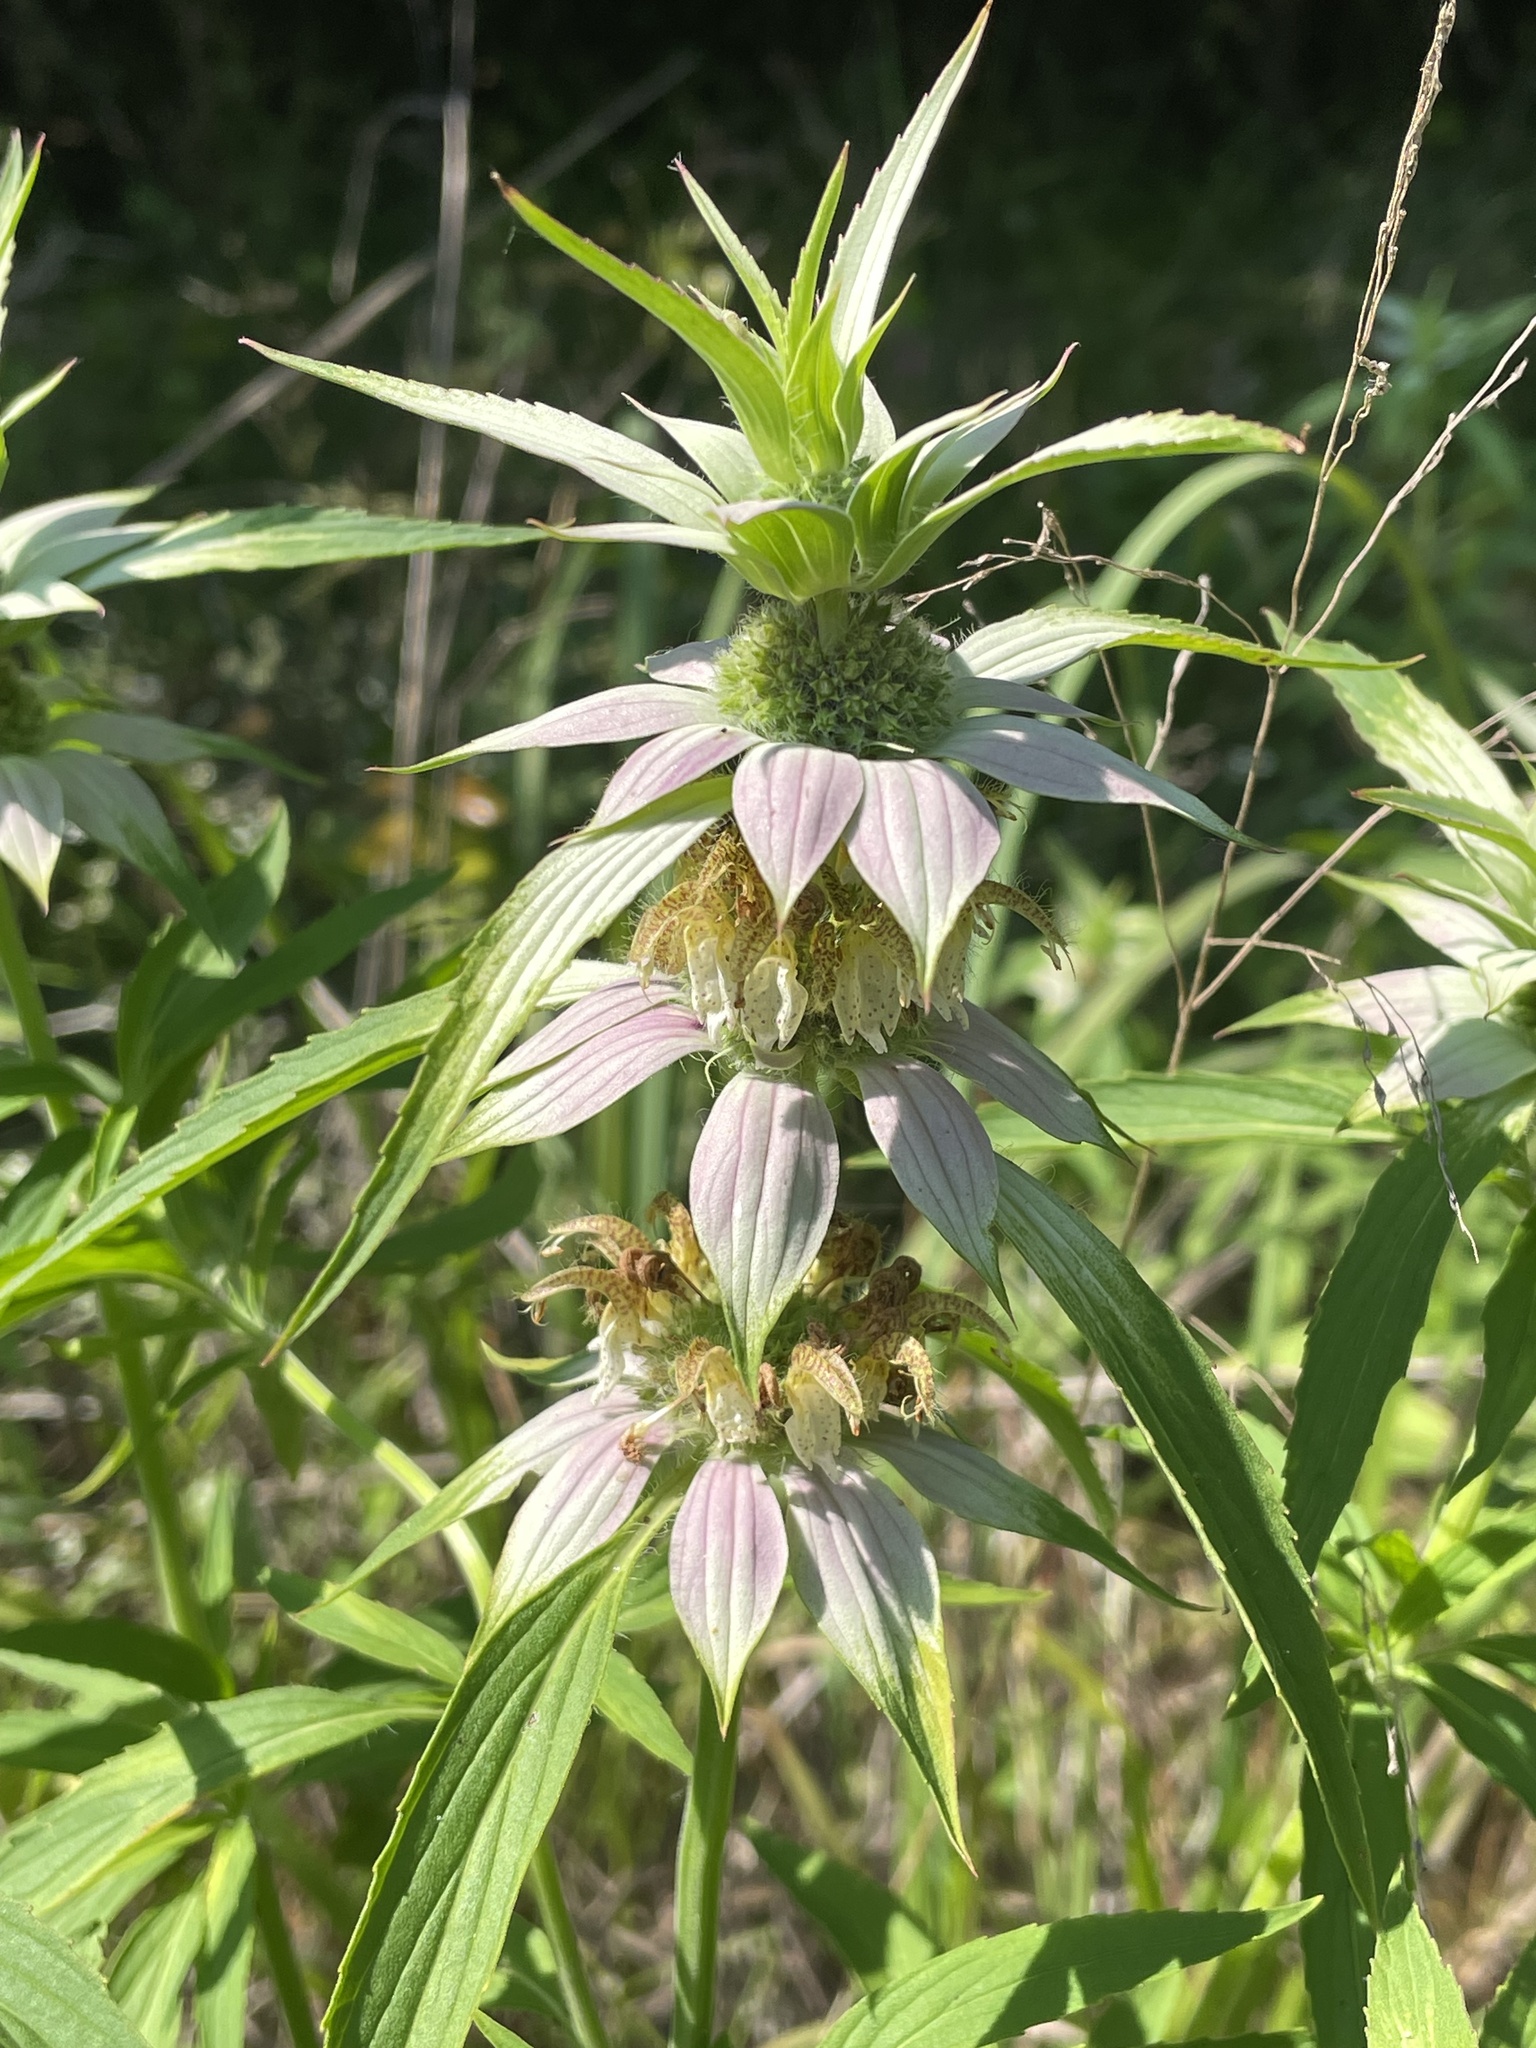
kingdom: Plantae
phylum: Tracheophyta
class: Magnoliopsida
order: Lamiales
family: Lamiaceae
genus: Monarda
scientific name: Monarda punctata
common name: Dotted monarda
